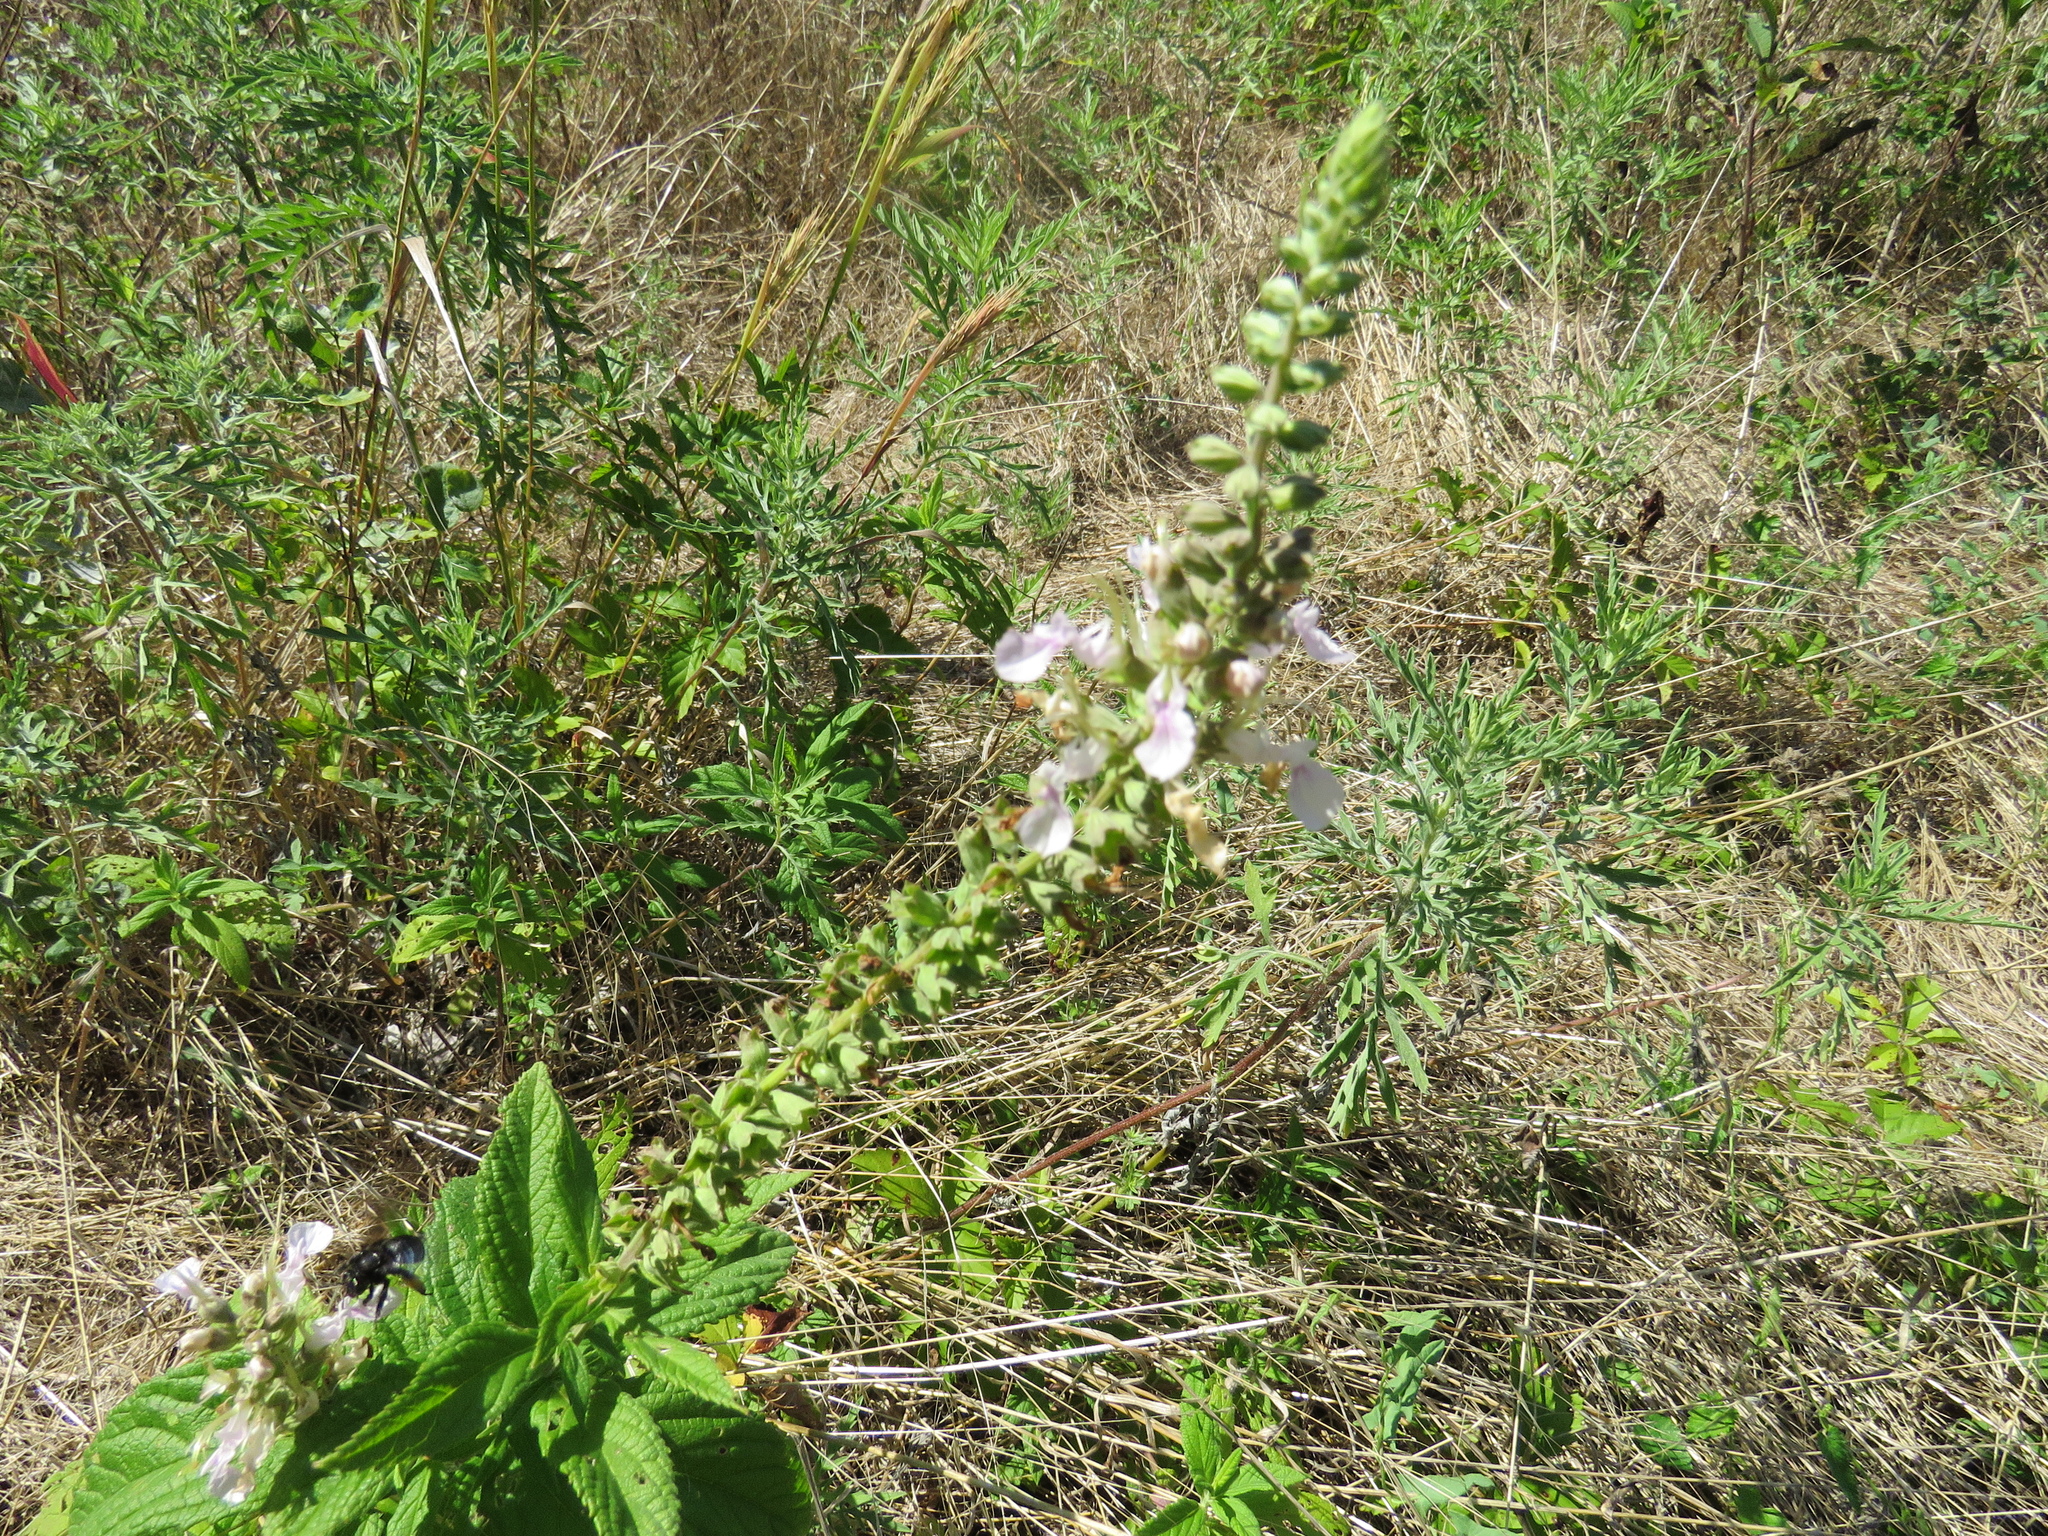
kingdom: Plantae
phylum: Tracheophyta
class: Magnoliopsida
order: Lamiales
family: Lamiaceae
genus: Teucrium
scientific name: Teucrium canadense
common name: American germander
